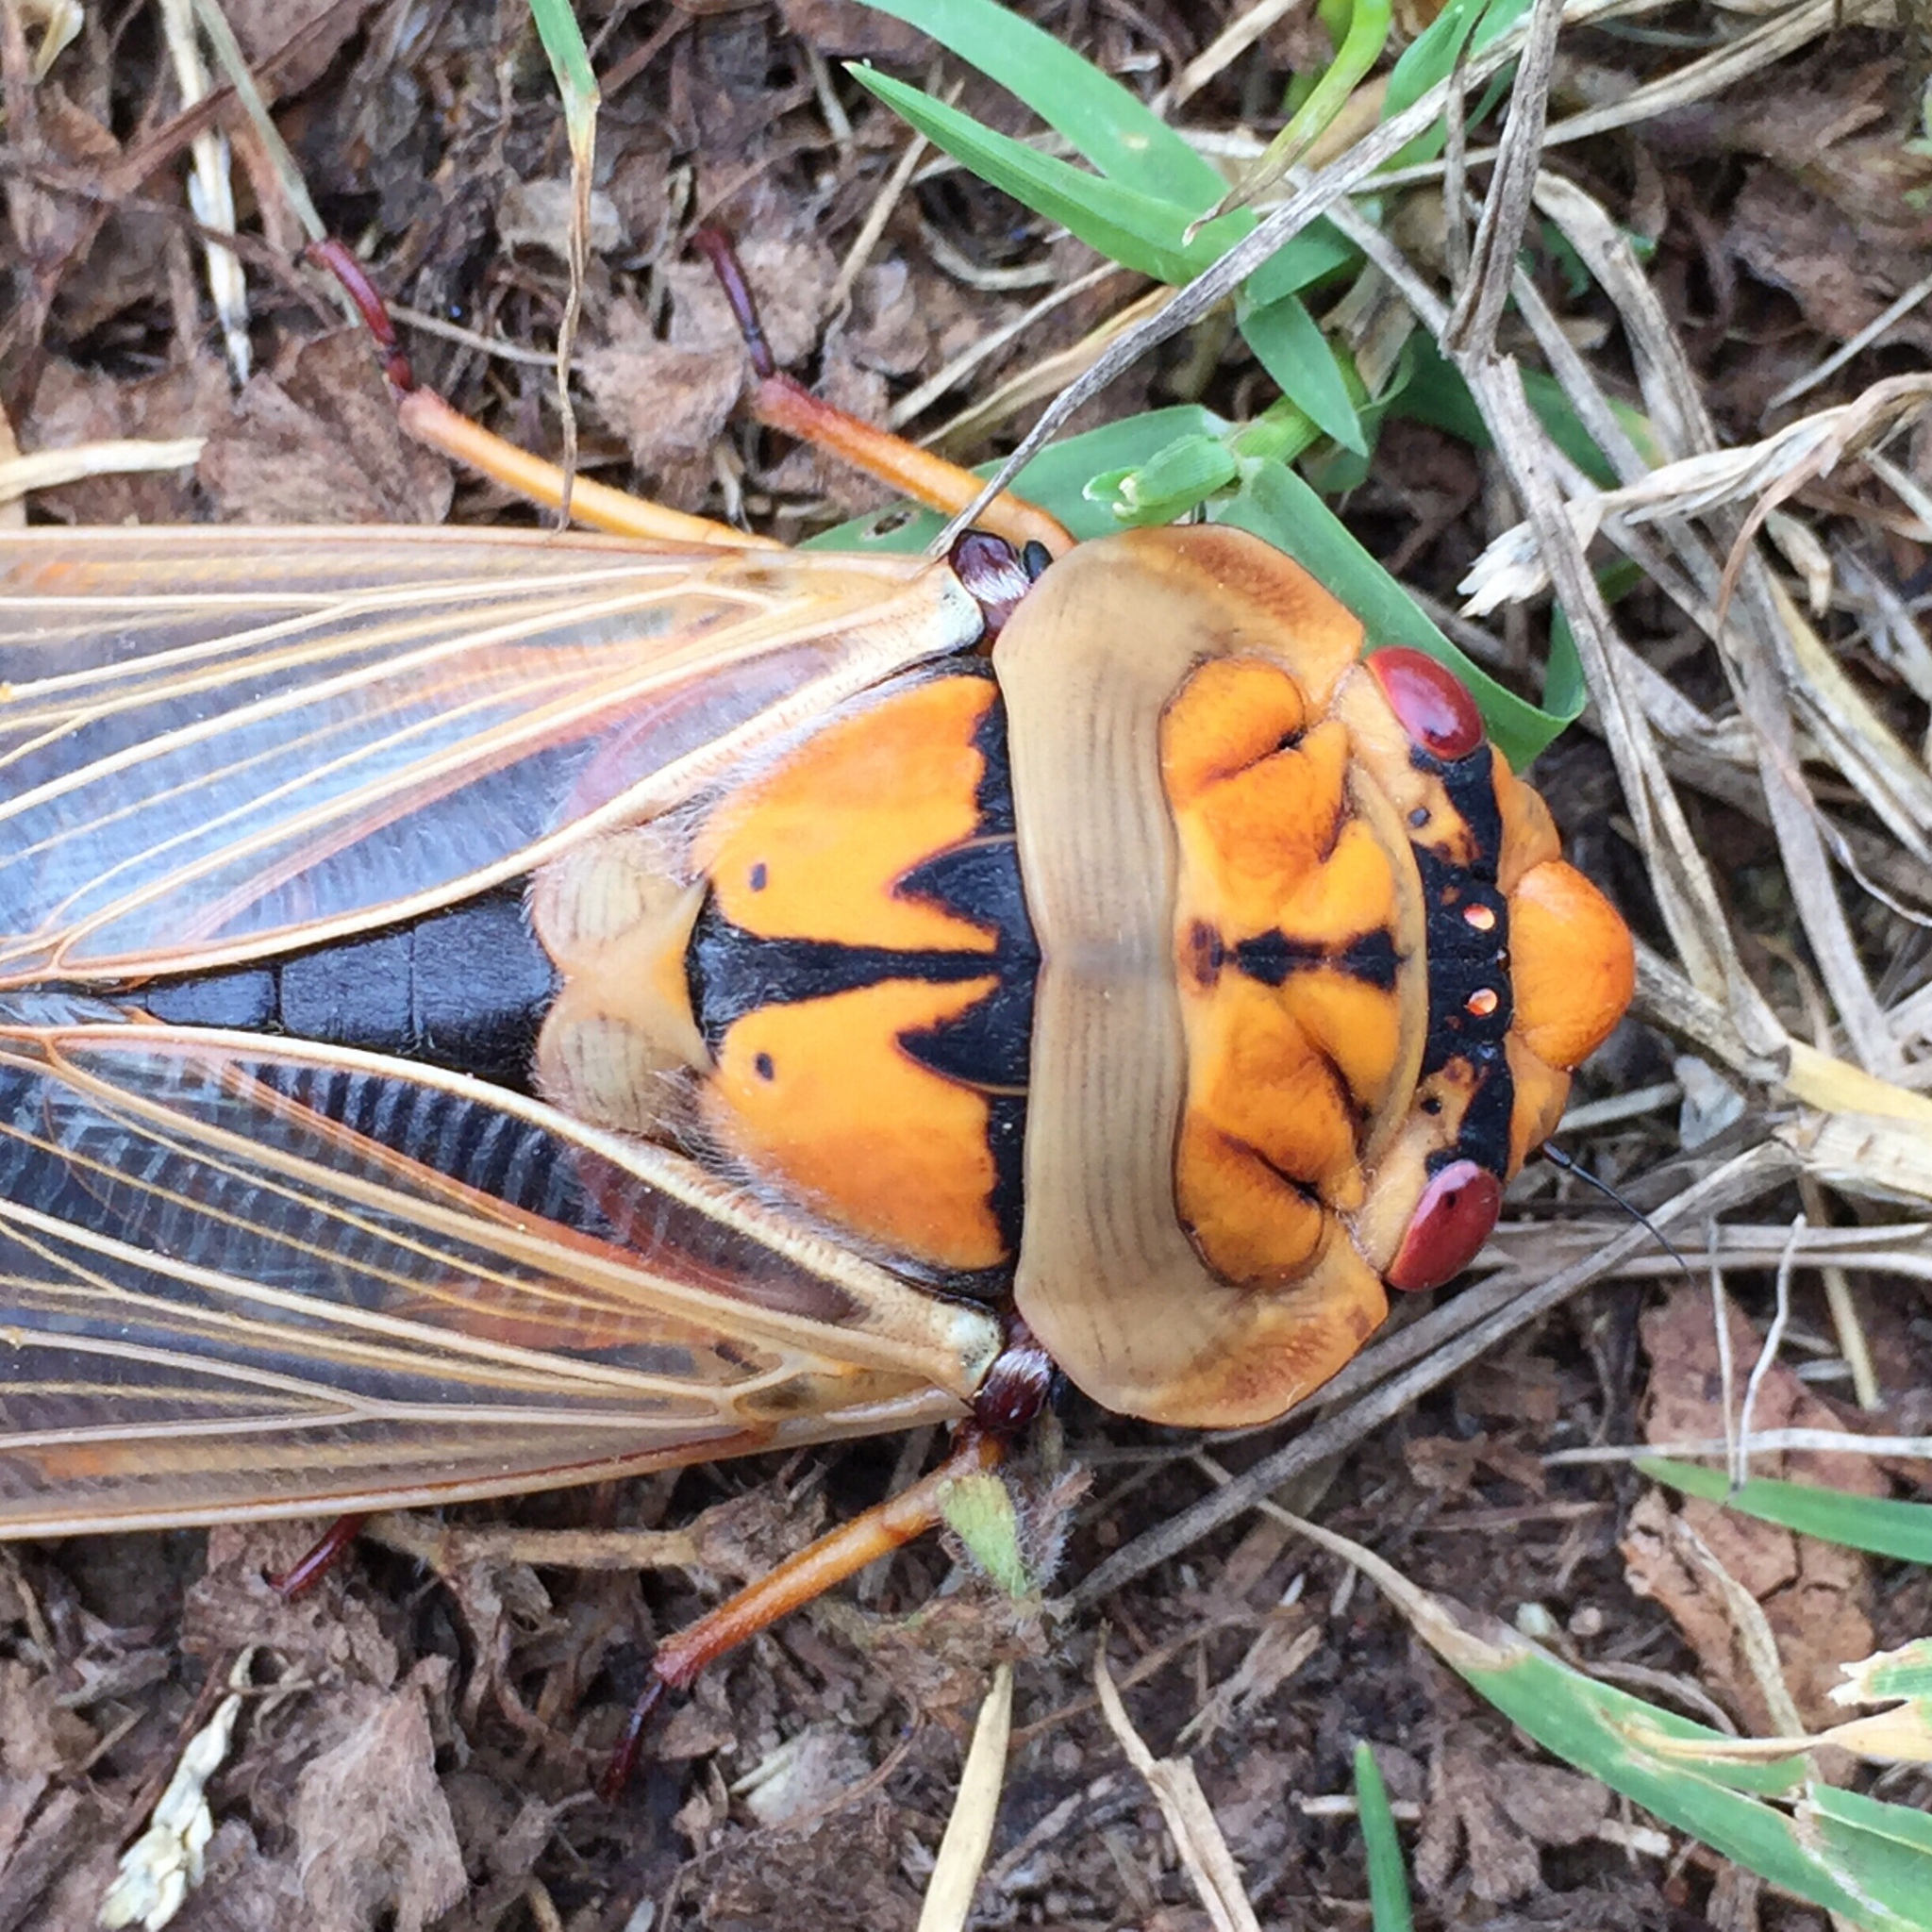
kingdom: Animalia
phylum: Arthropoda
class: Insecta
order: Hemiptera
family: Cicadidae
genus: Cyclochila
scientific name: Cyclochila australasiae
